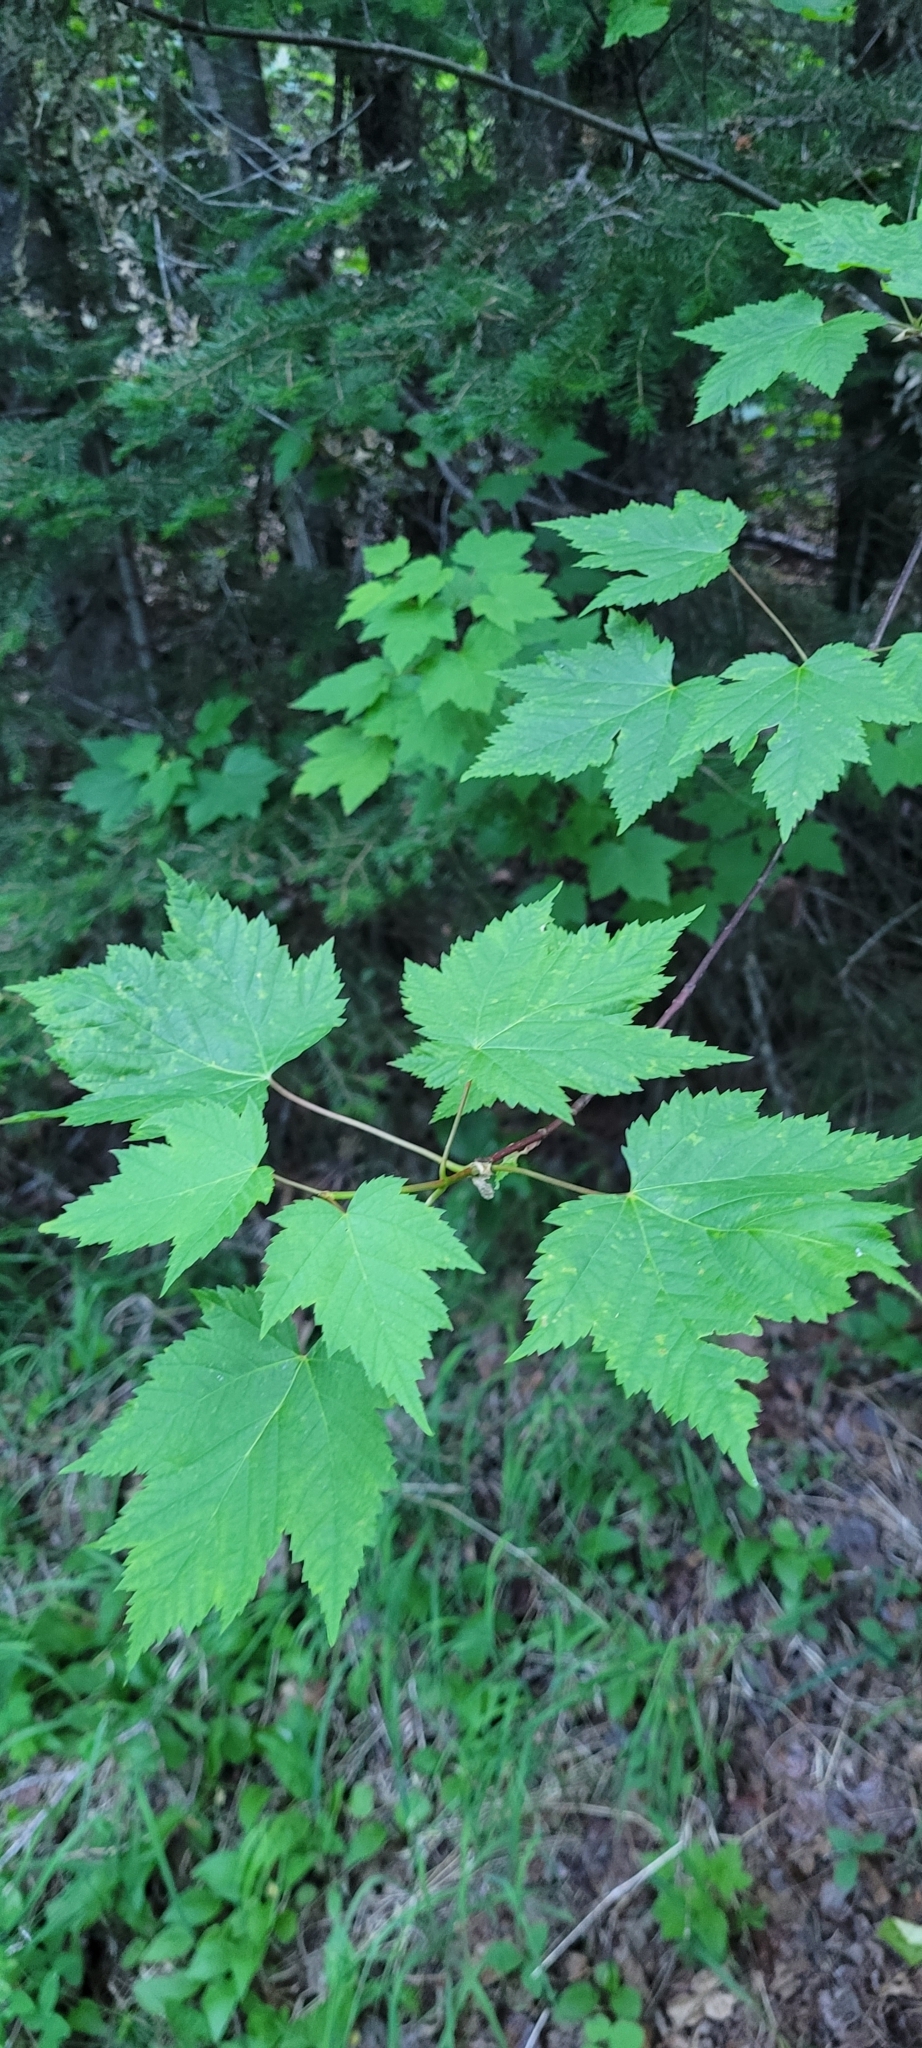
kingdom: Plantae
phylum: Tracheophyta
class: Magnoliopsida
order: Sapindales
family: Sapindaceae
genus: Acer
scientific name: Acer glabrum
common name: Rocky mountain maple
